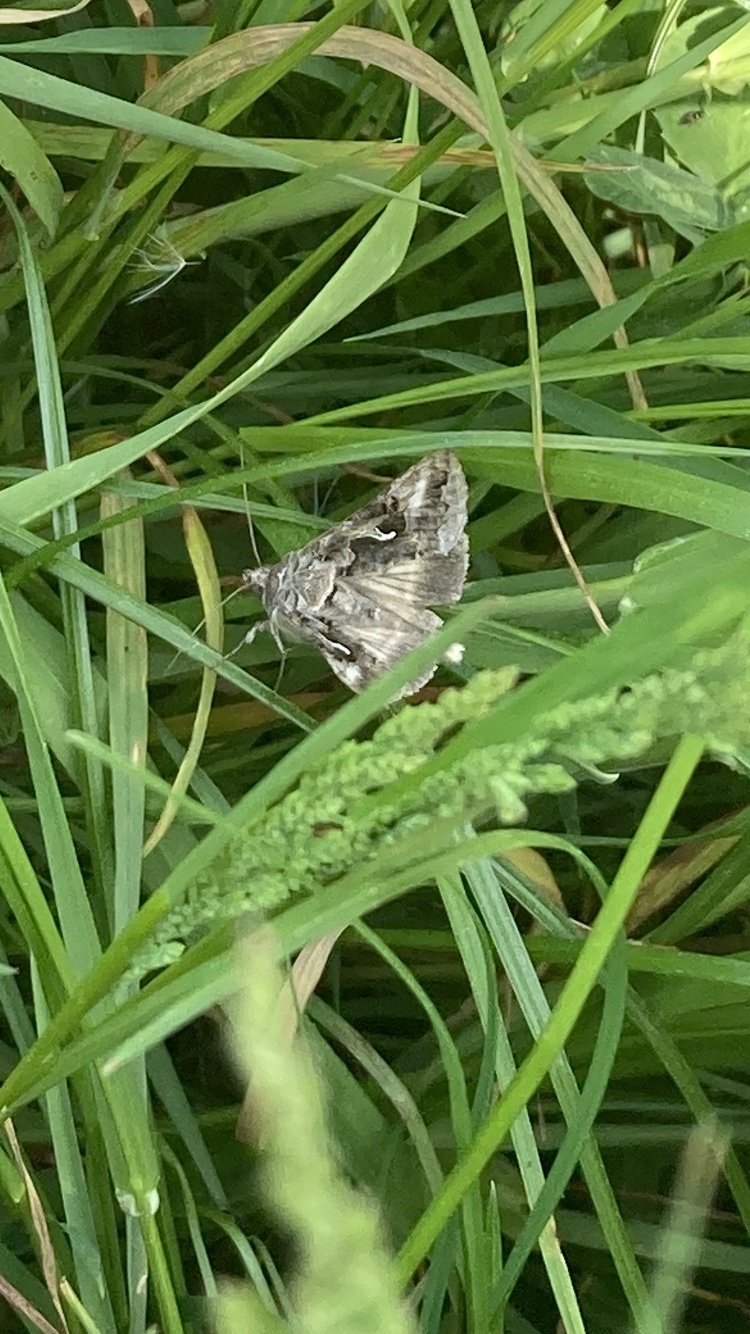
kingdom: Animalia
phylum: Arthropoda
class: Insecta
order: Lepidoptera
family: Noctuidae
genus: Autographa
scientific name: Autographa gamma
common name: Silver y
